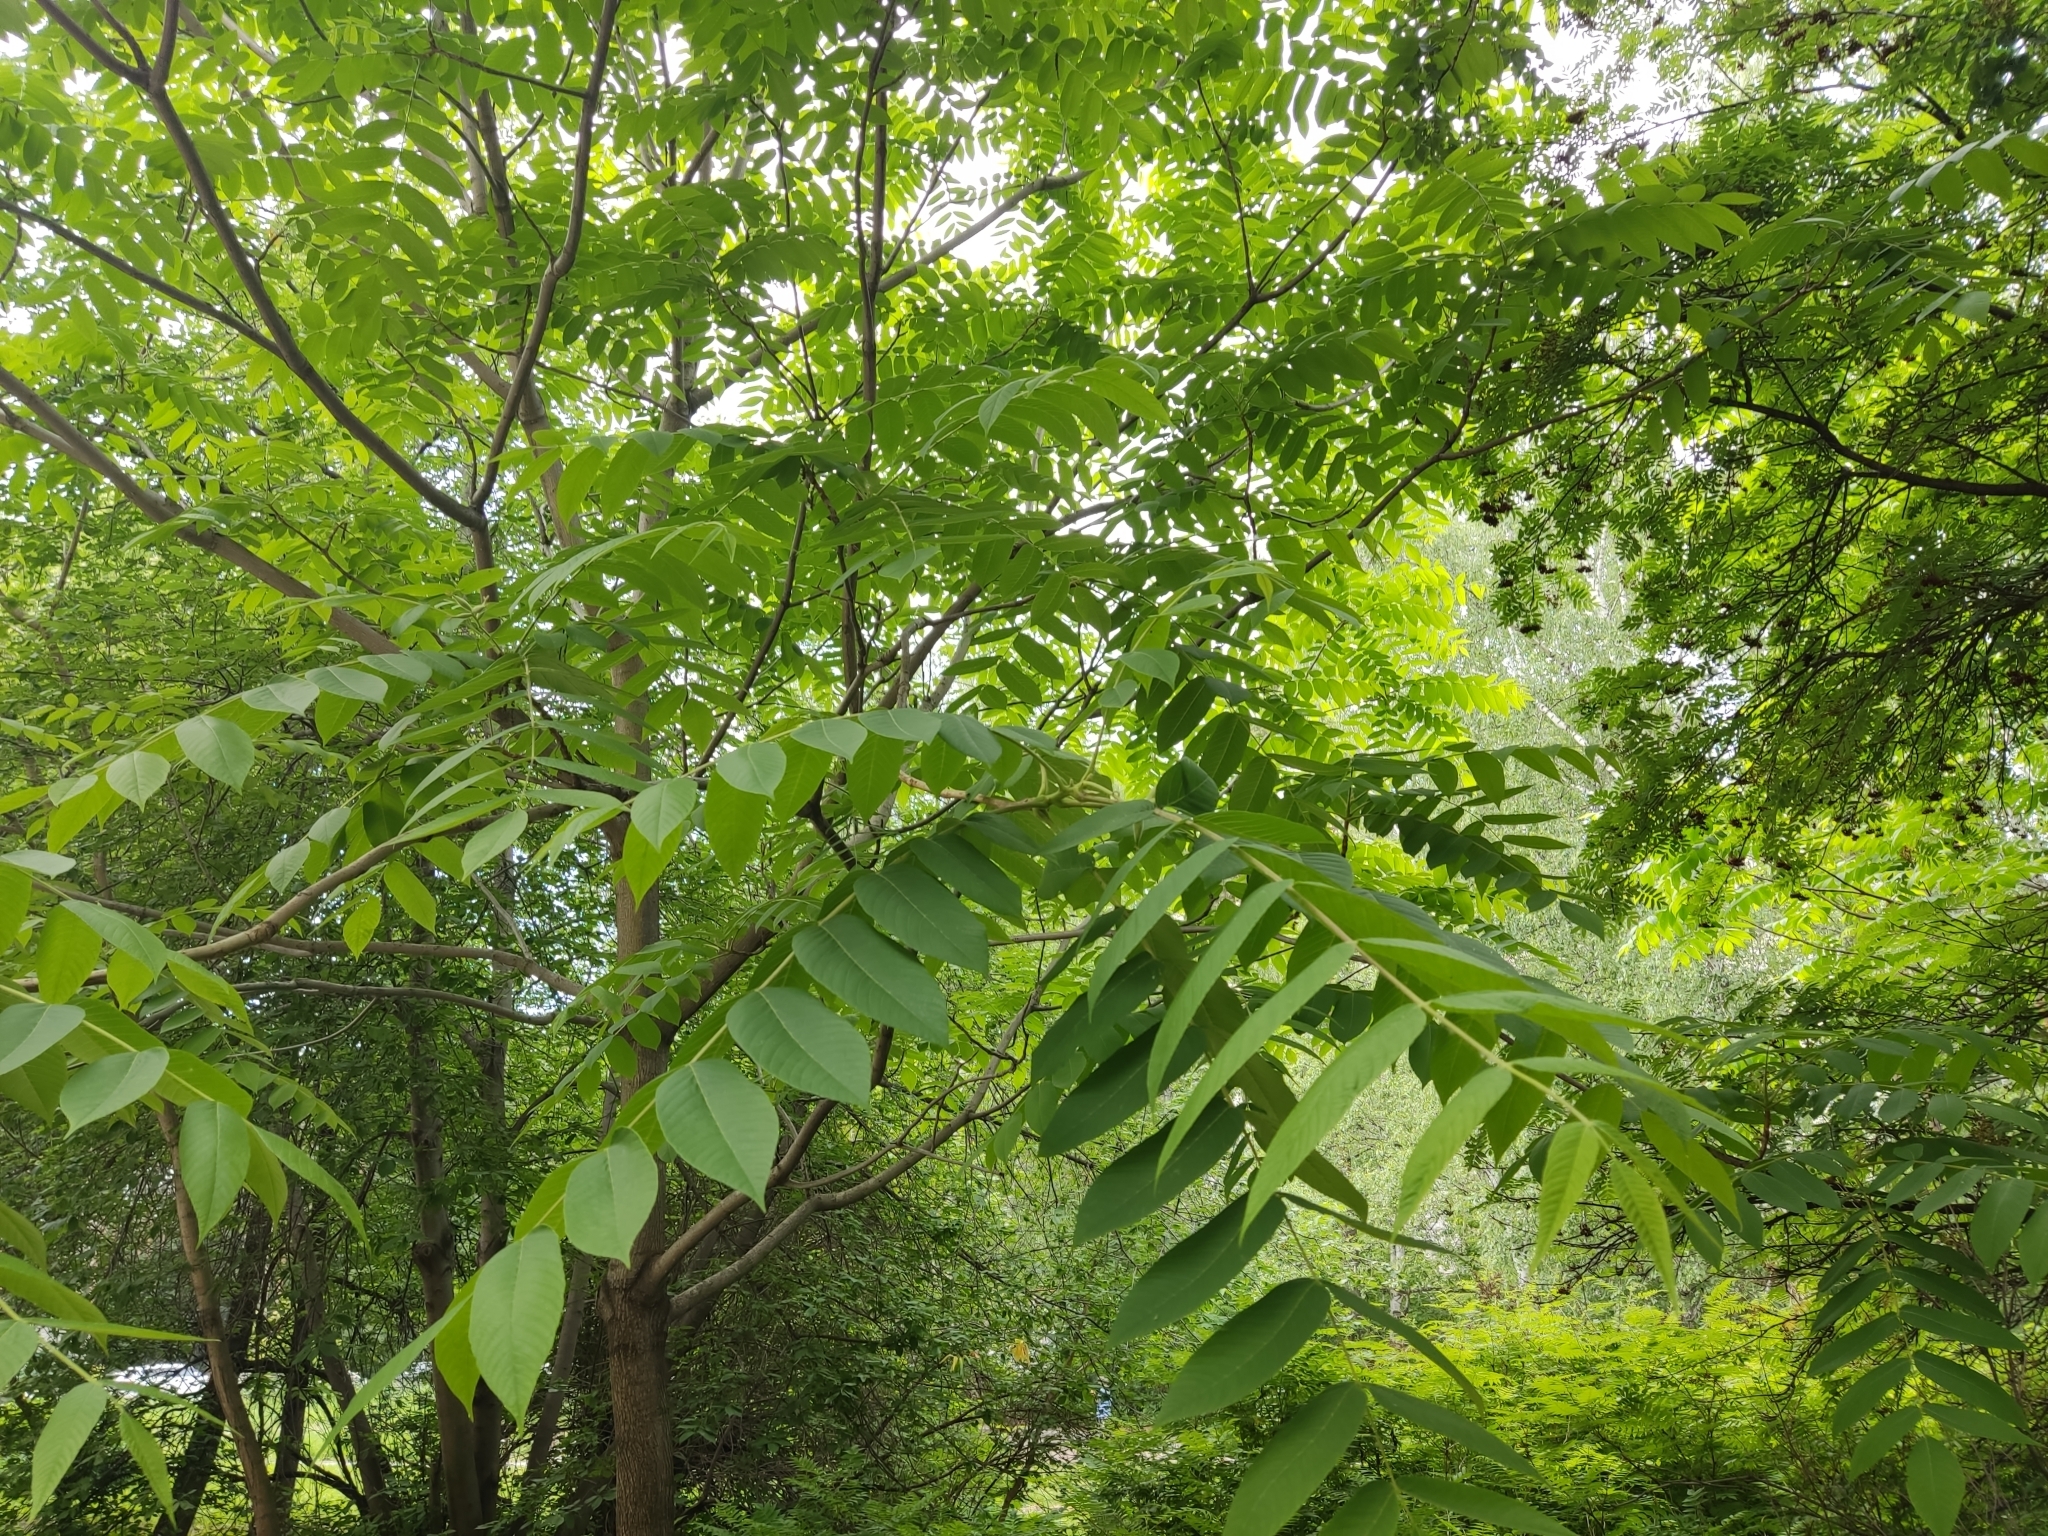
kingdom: Plantae
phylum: Tracheophyta
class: Magnoliopsida
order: Fagales
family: Juglandaceae
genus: Juglans
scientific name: Juglans mandshurica
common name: Manchurian walnut
